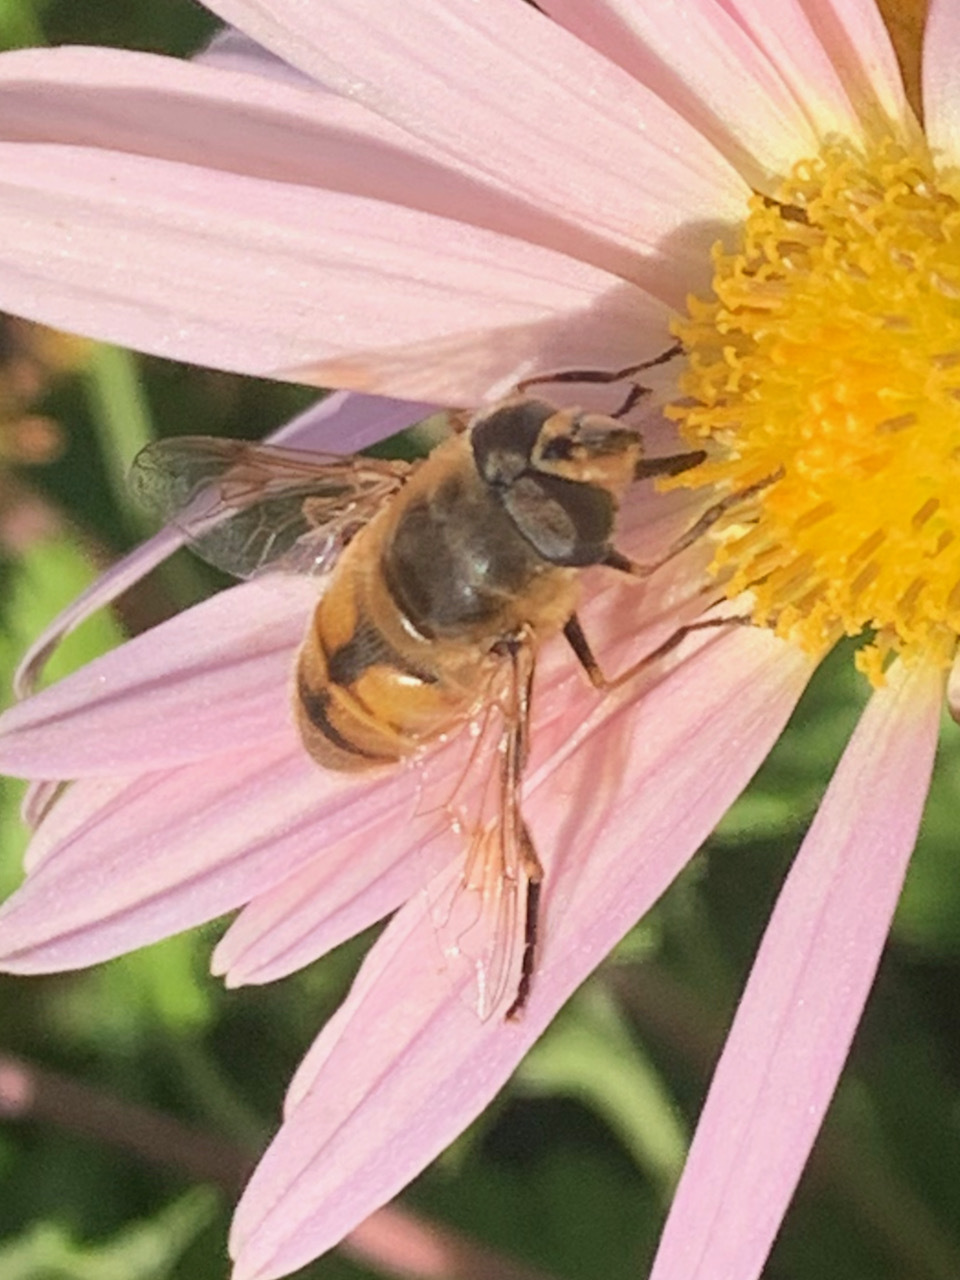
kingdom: Animalia
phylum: Arthropoda
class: Insecta
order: Diptera
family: Syrphidae
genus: Eristalis
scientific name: Eristalis tenax
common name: Drone fly
